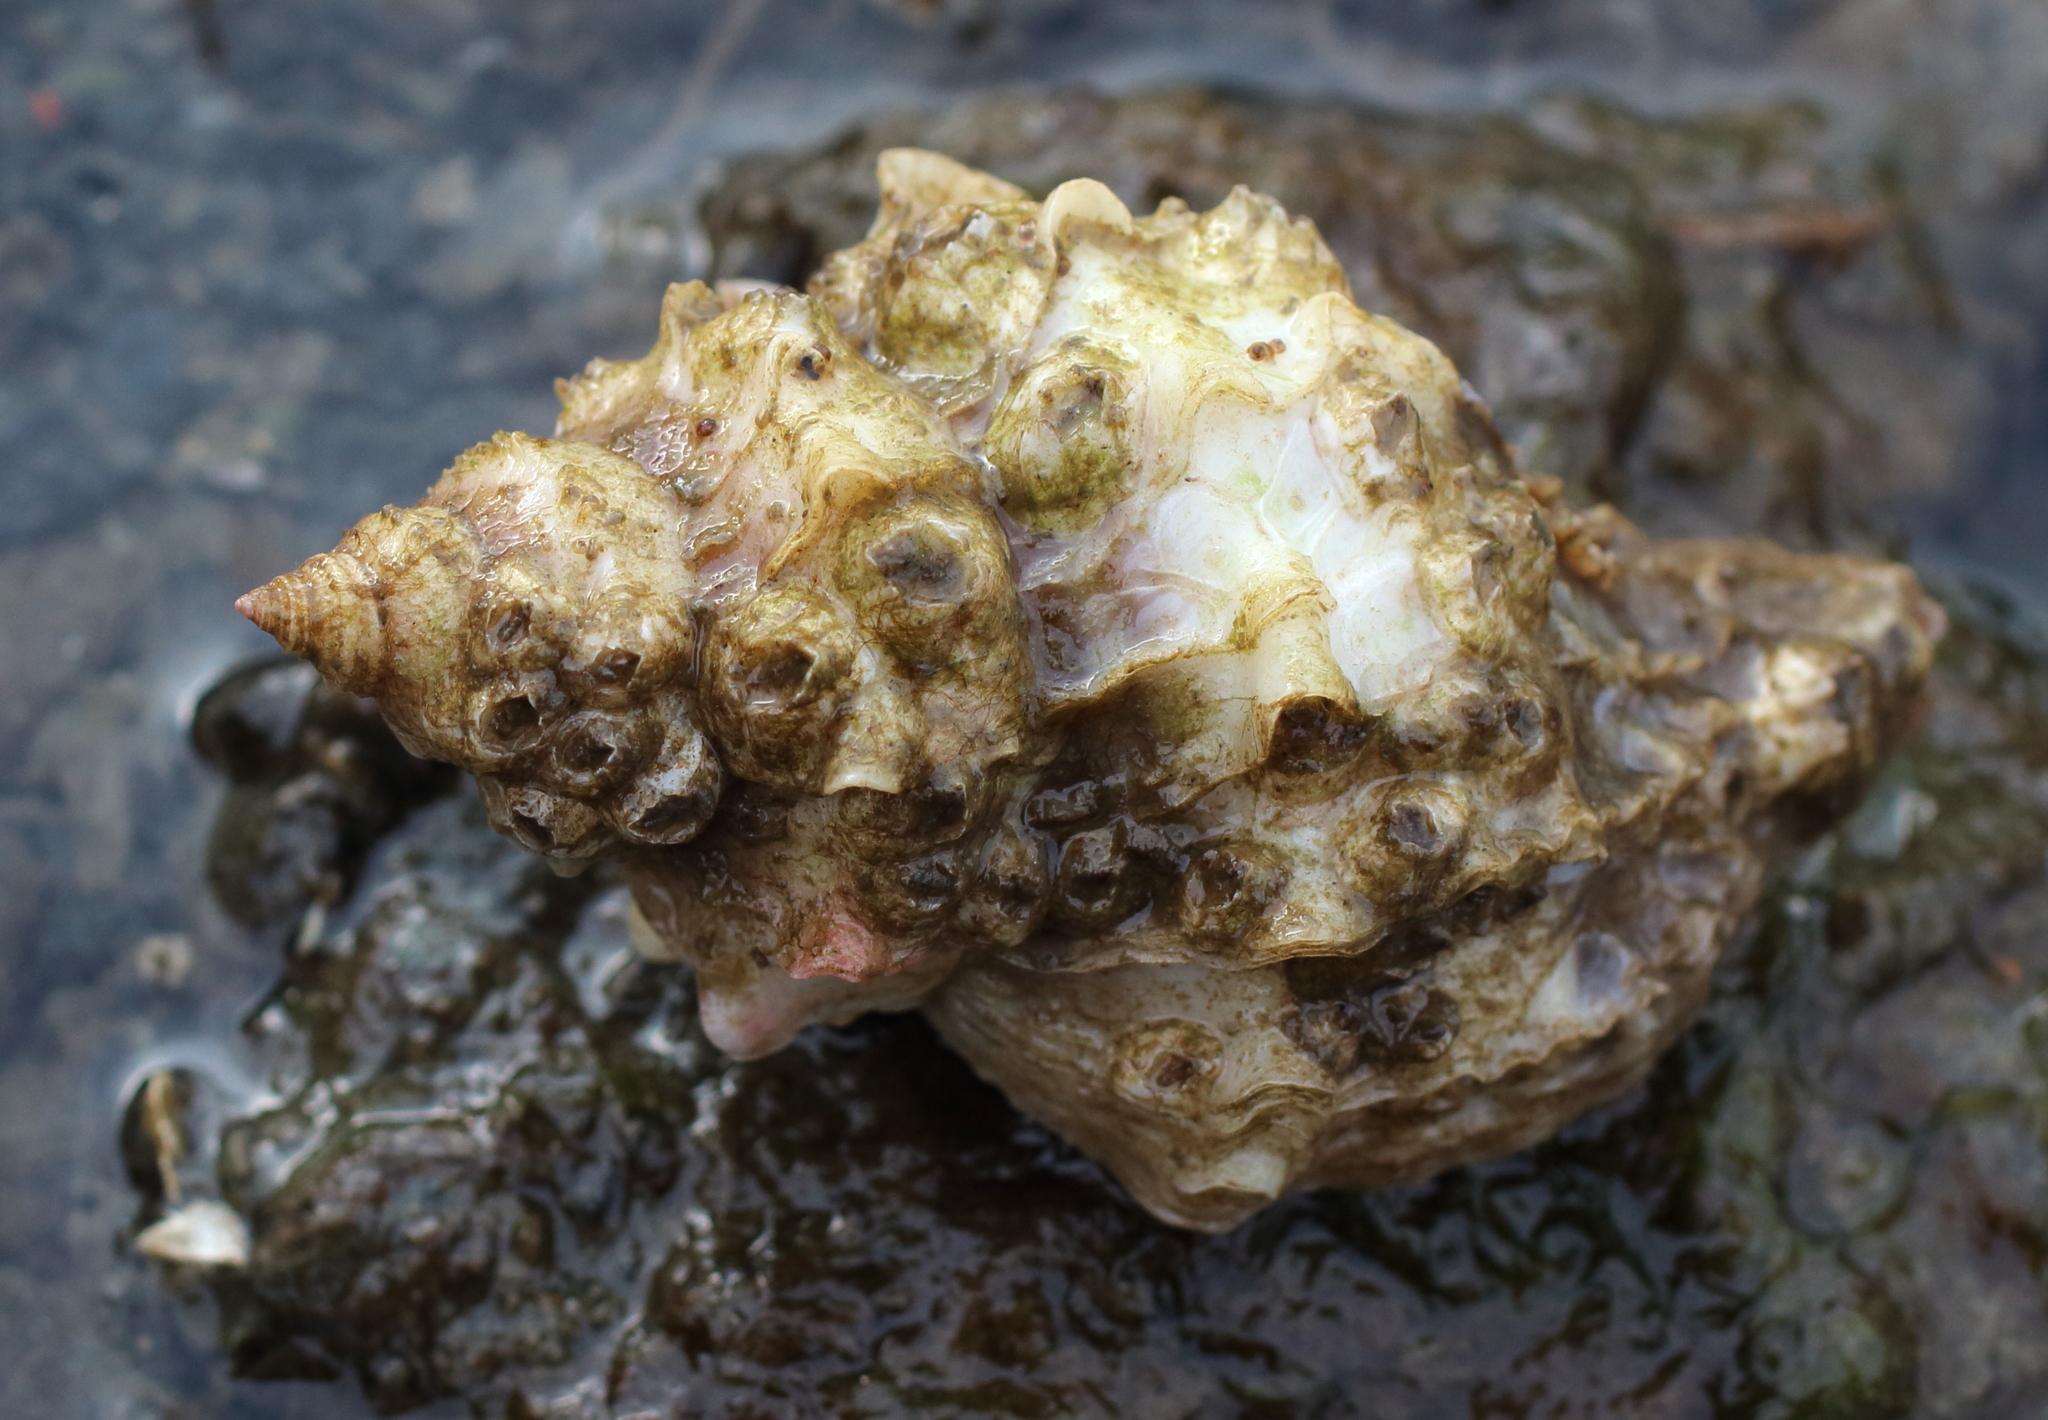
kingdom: Animalia
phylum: Mollusca
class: Gastropoda
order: Neogastropoda
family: Muricidae
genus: Nucella
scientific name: Nucella lamellosa
